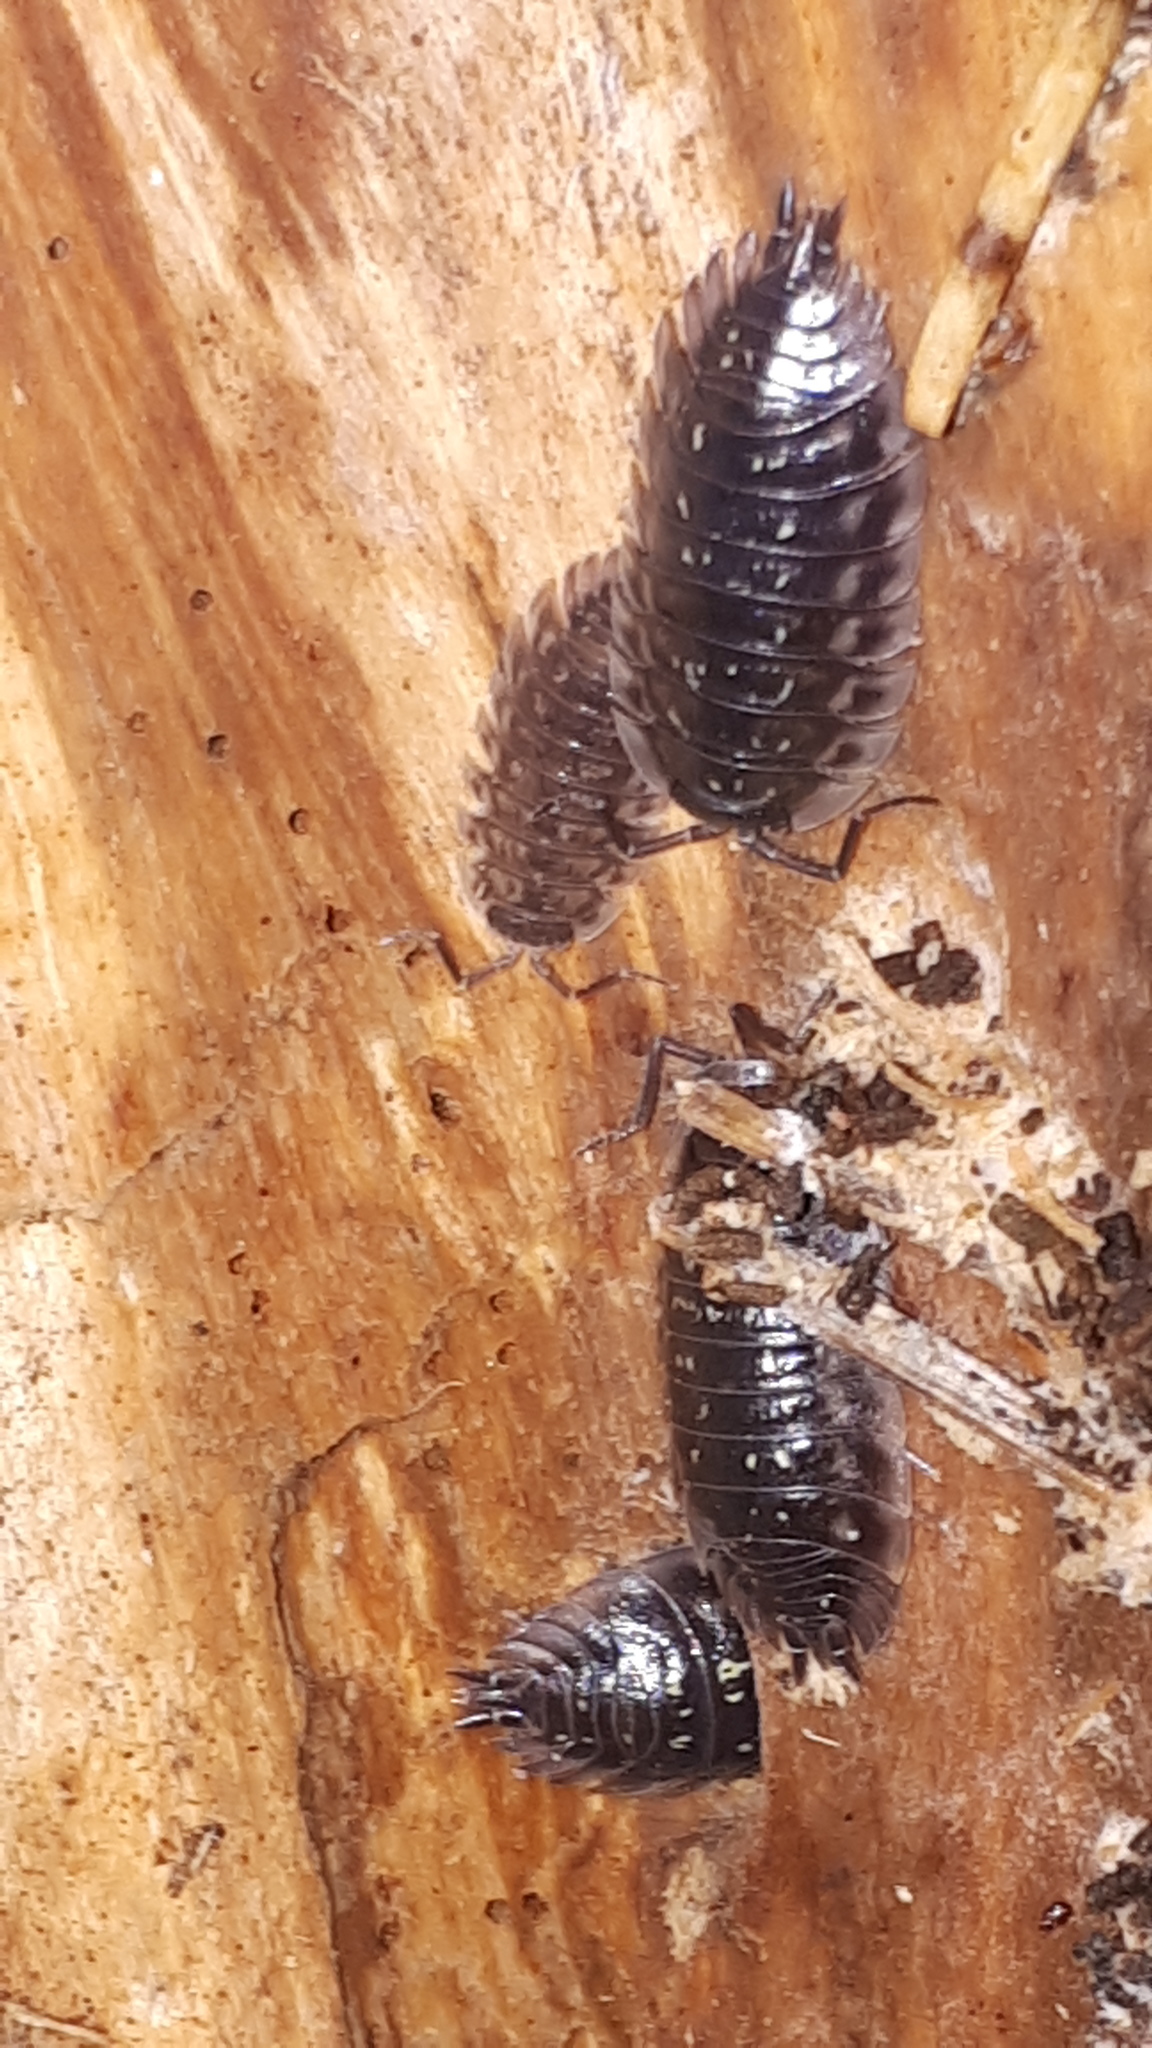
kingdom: Animalia
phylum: Arthropoda
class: Malacostraca
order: Isopoda
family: Oniscidae
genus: Oniscus
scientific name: Oniscus asellus
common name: Common shiny woodlouse
